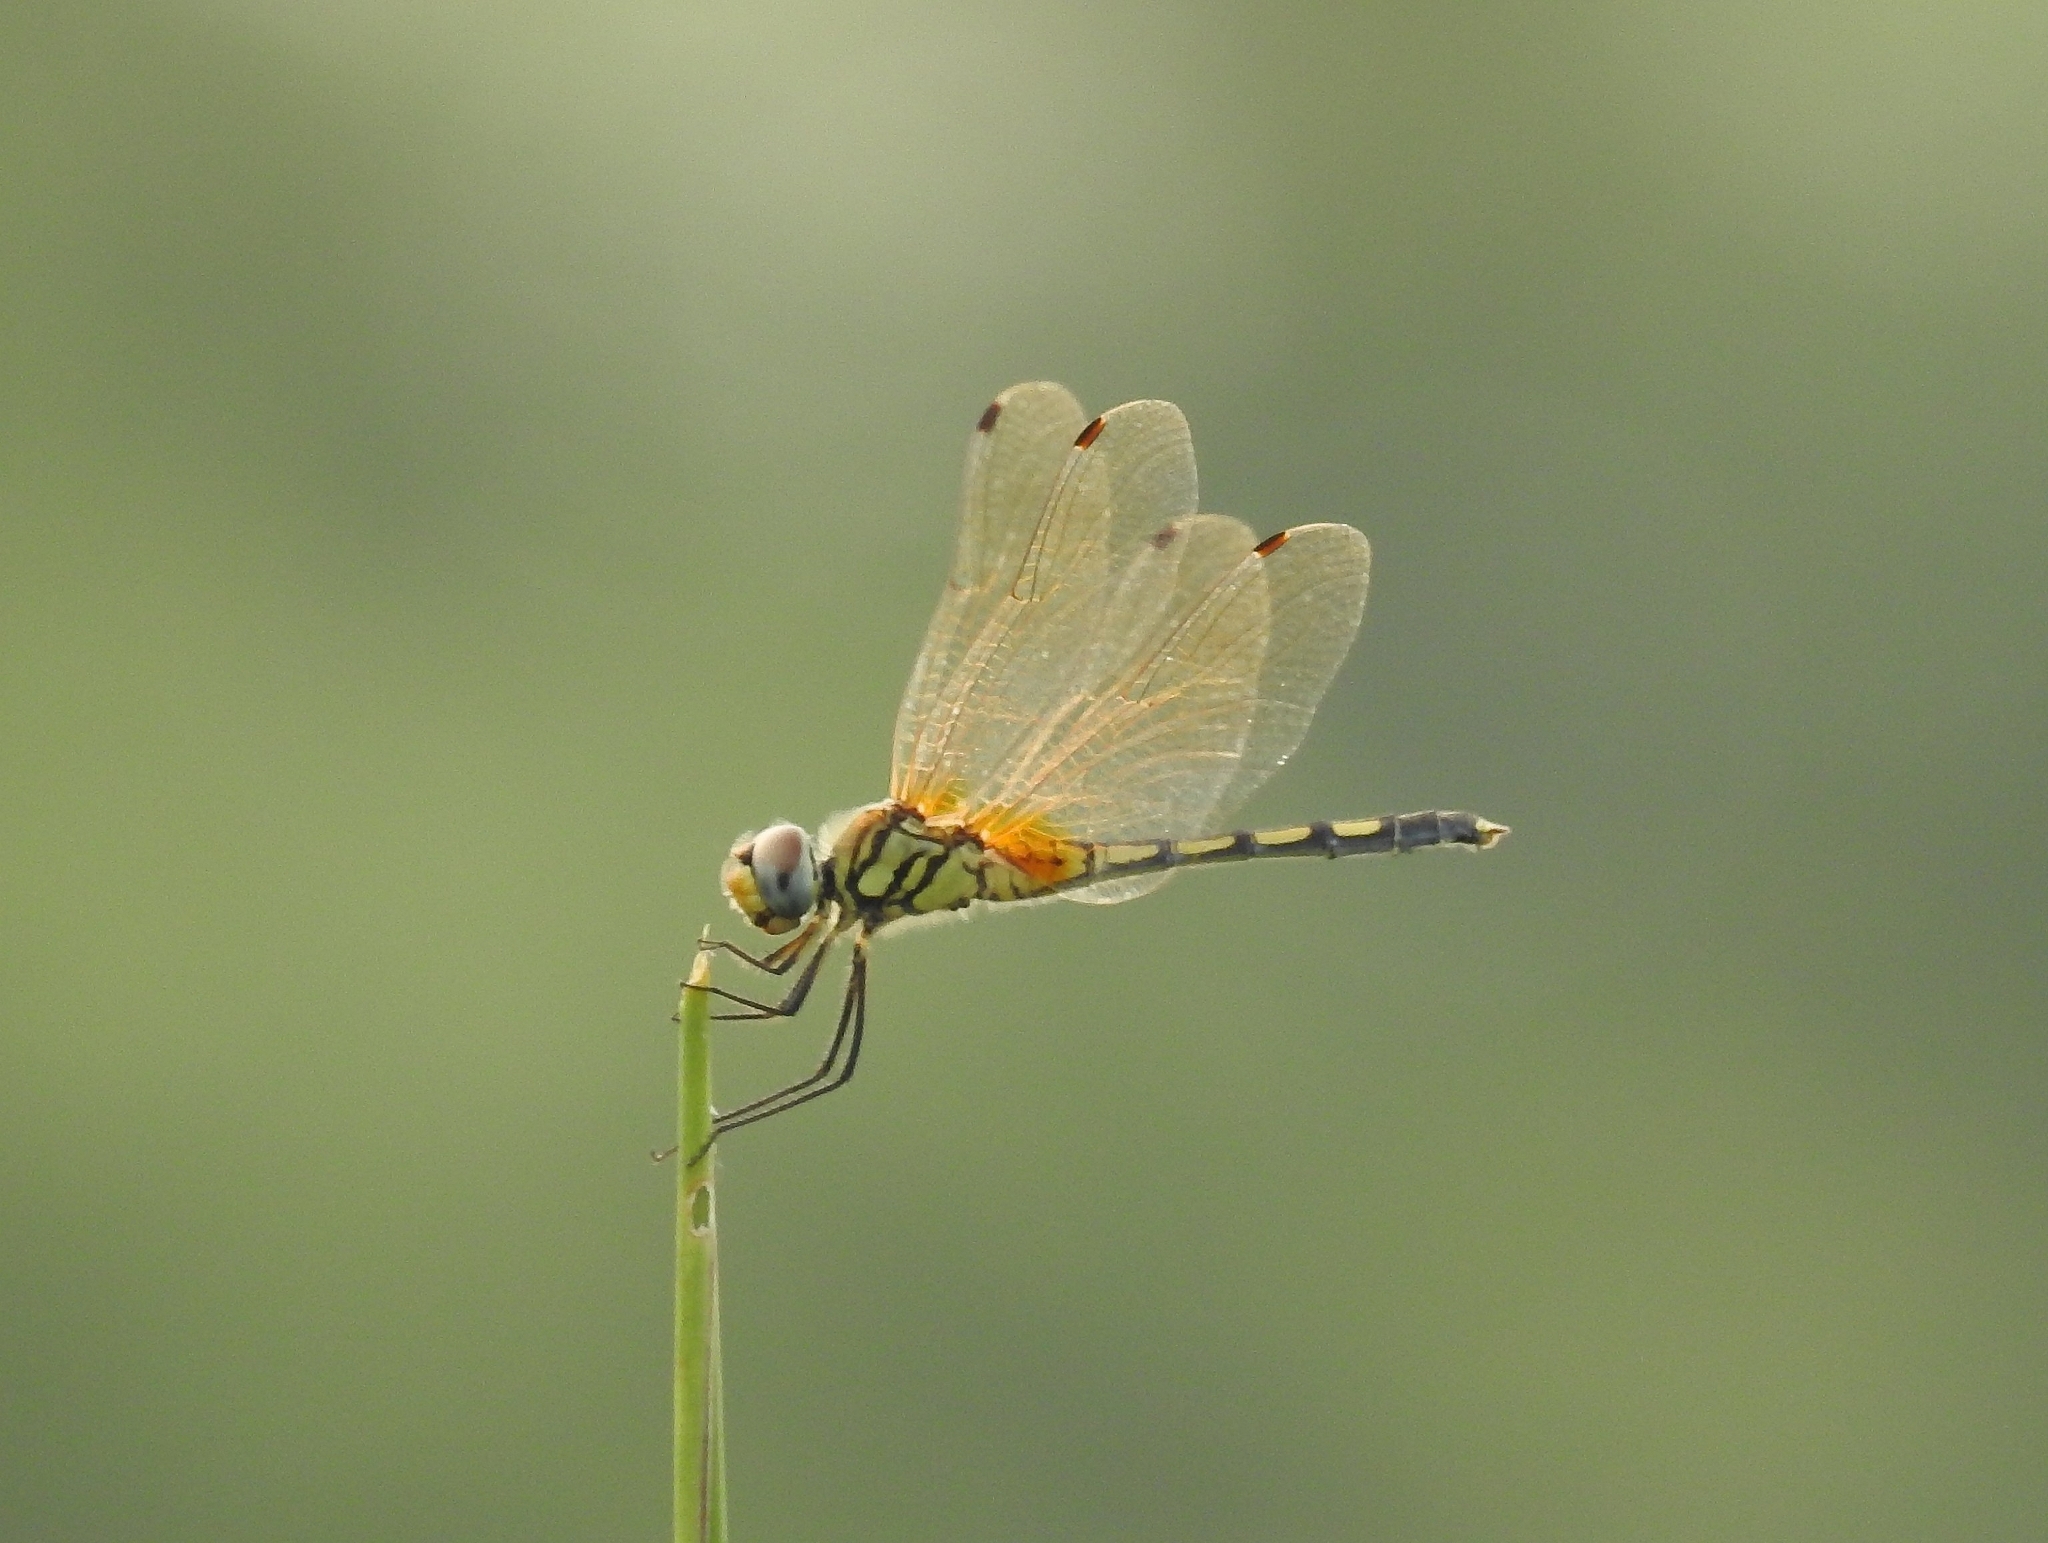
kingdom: Animalia
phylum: Arthropoda
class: Insecta
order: Odonata
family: Libellulidae
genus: Trithemis
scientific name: Trithemis pallidinervis
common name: Dancing dropwing
